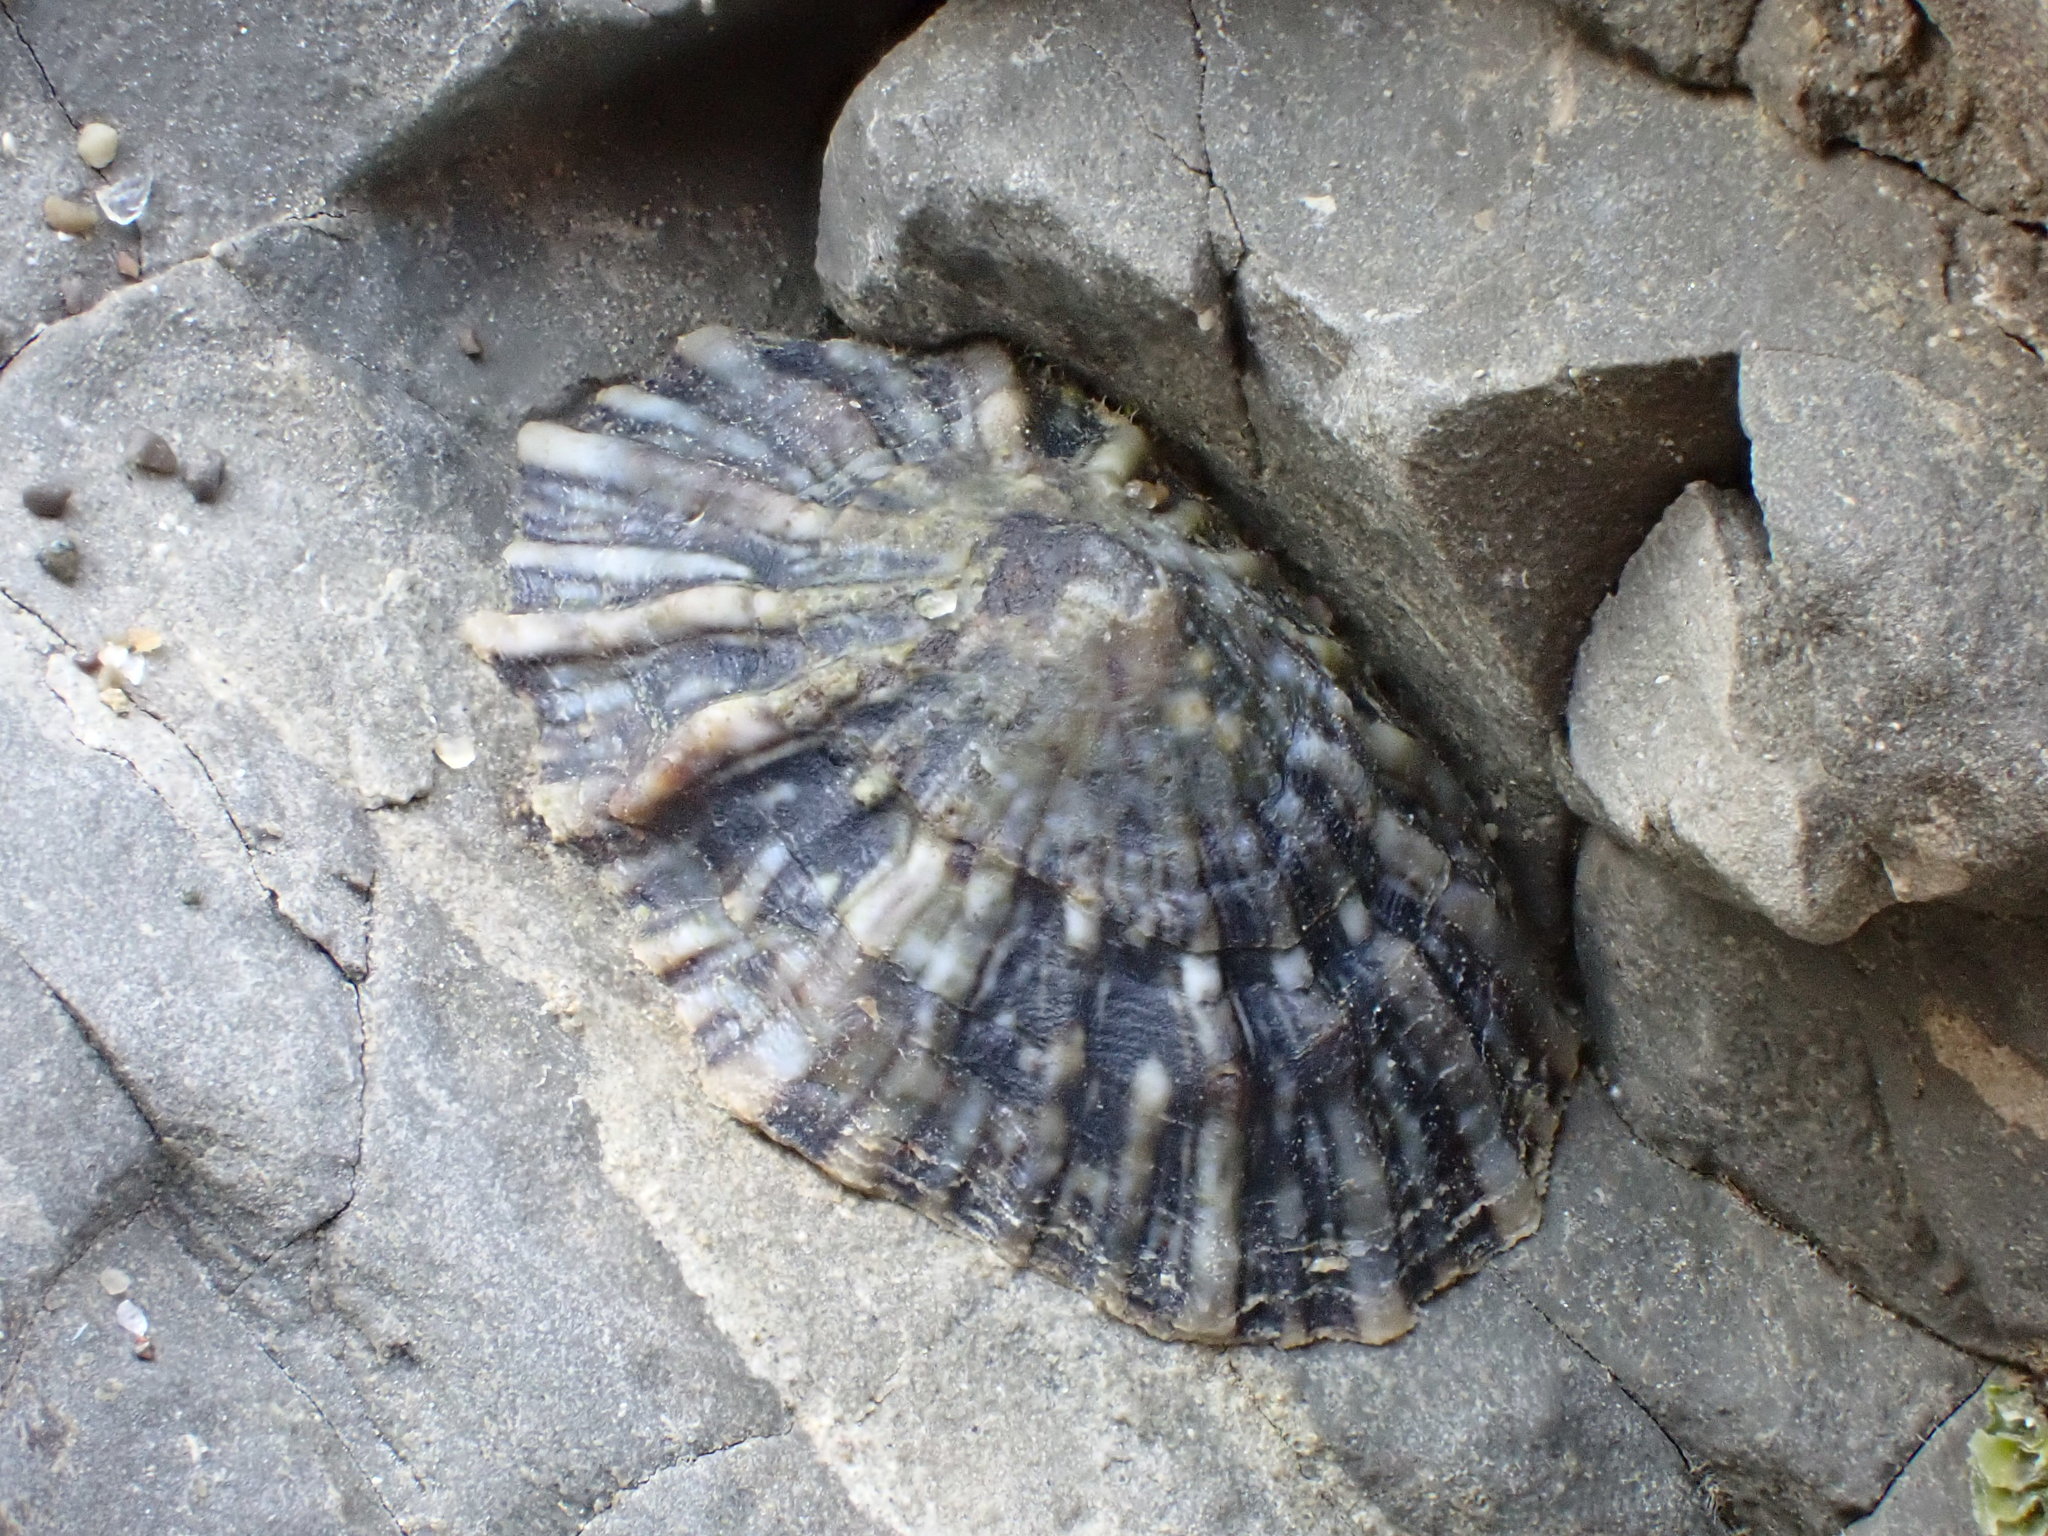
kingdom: Animalia
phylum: Mollusca
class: Gastropoda
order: Siphonariida
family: Siphonariidae
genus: Siphonaria
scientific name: Siphonaria australis
